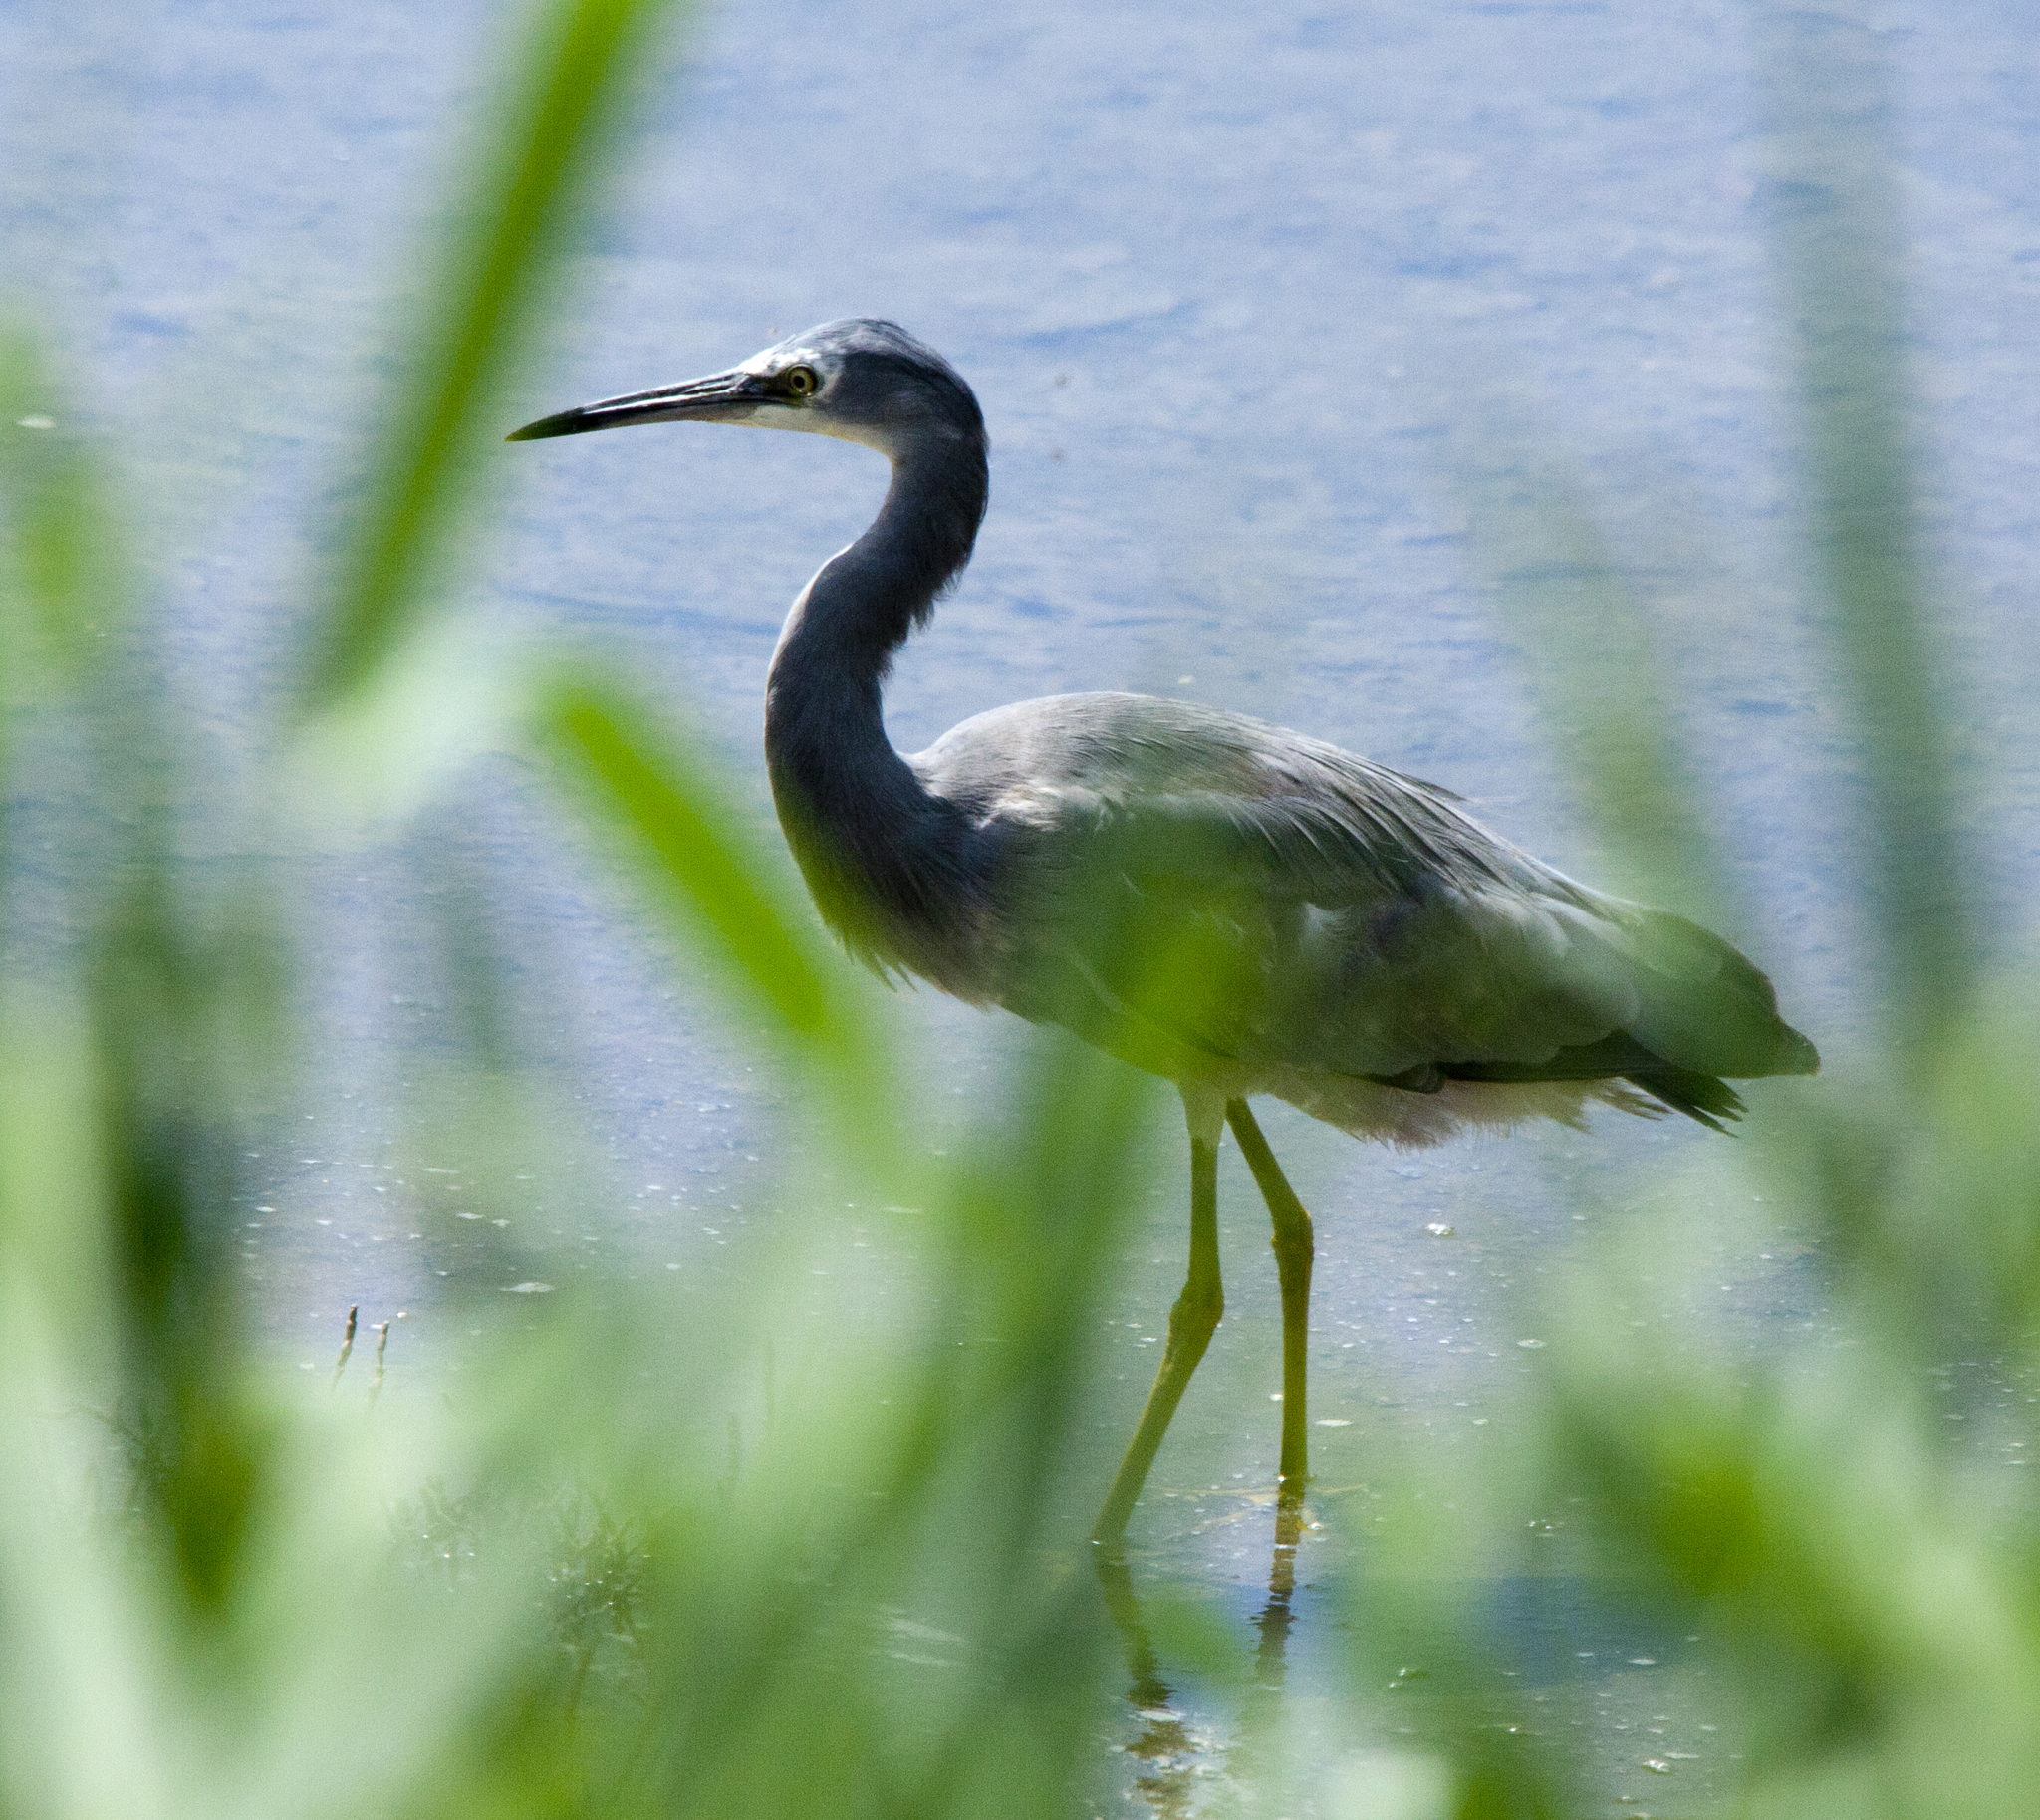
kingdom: Animalia
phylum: Chordata
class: Aves
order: Pelecaniformes
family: Ardeidae
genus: Egretta
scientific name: Egretta novaehollandiae
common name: White-faced heron
